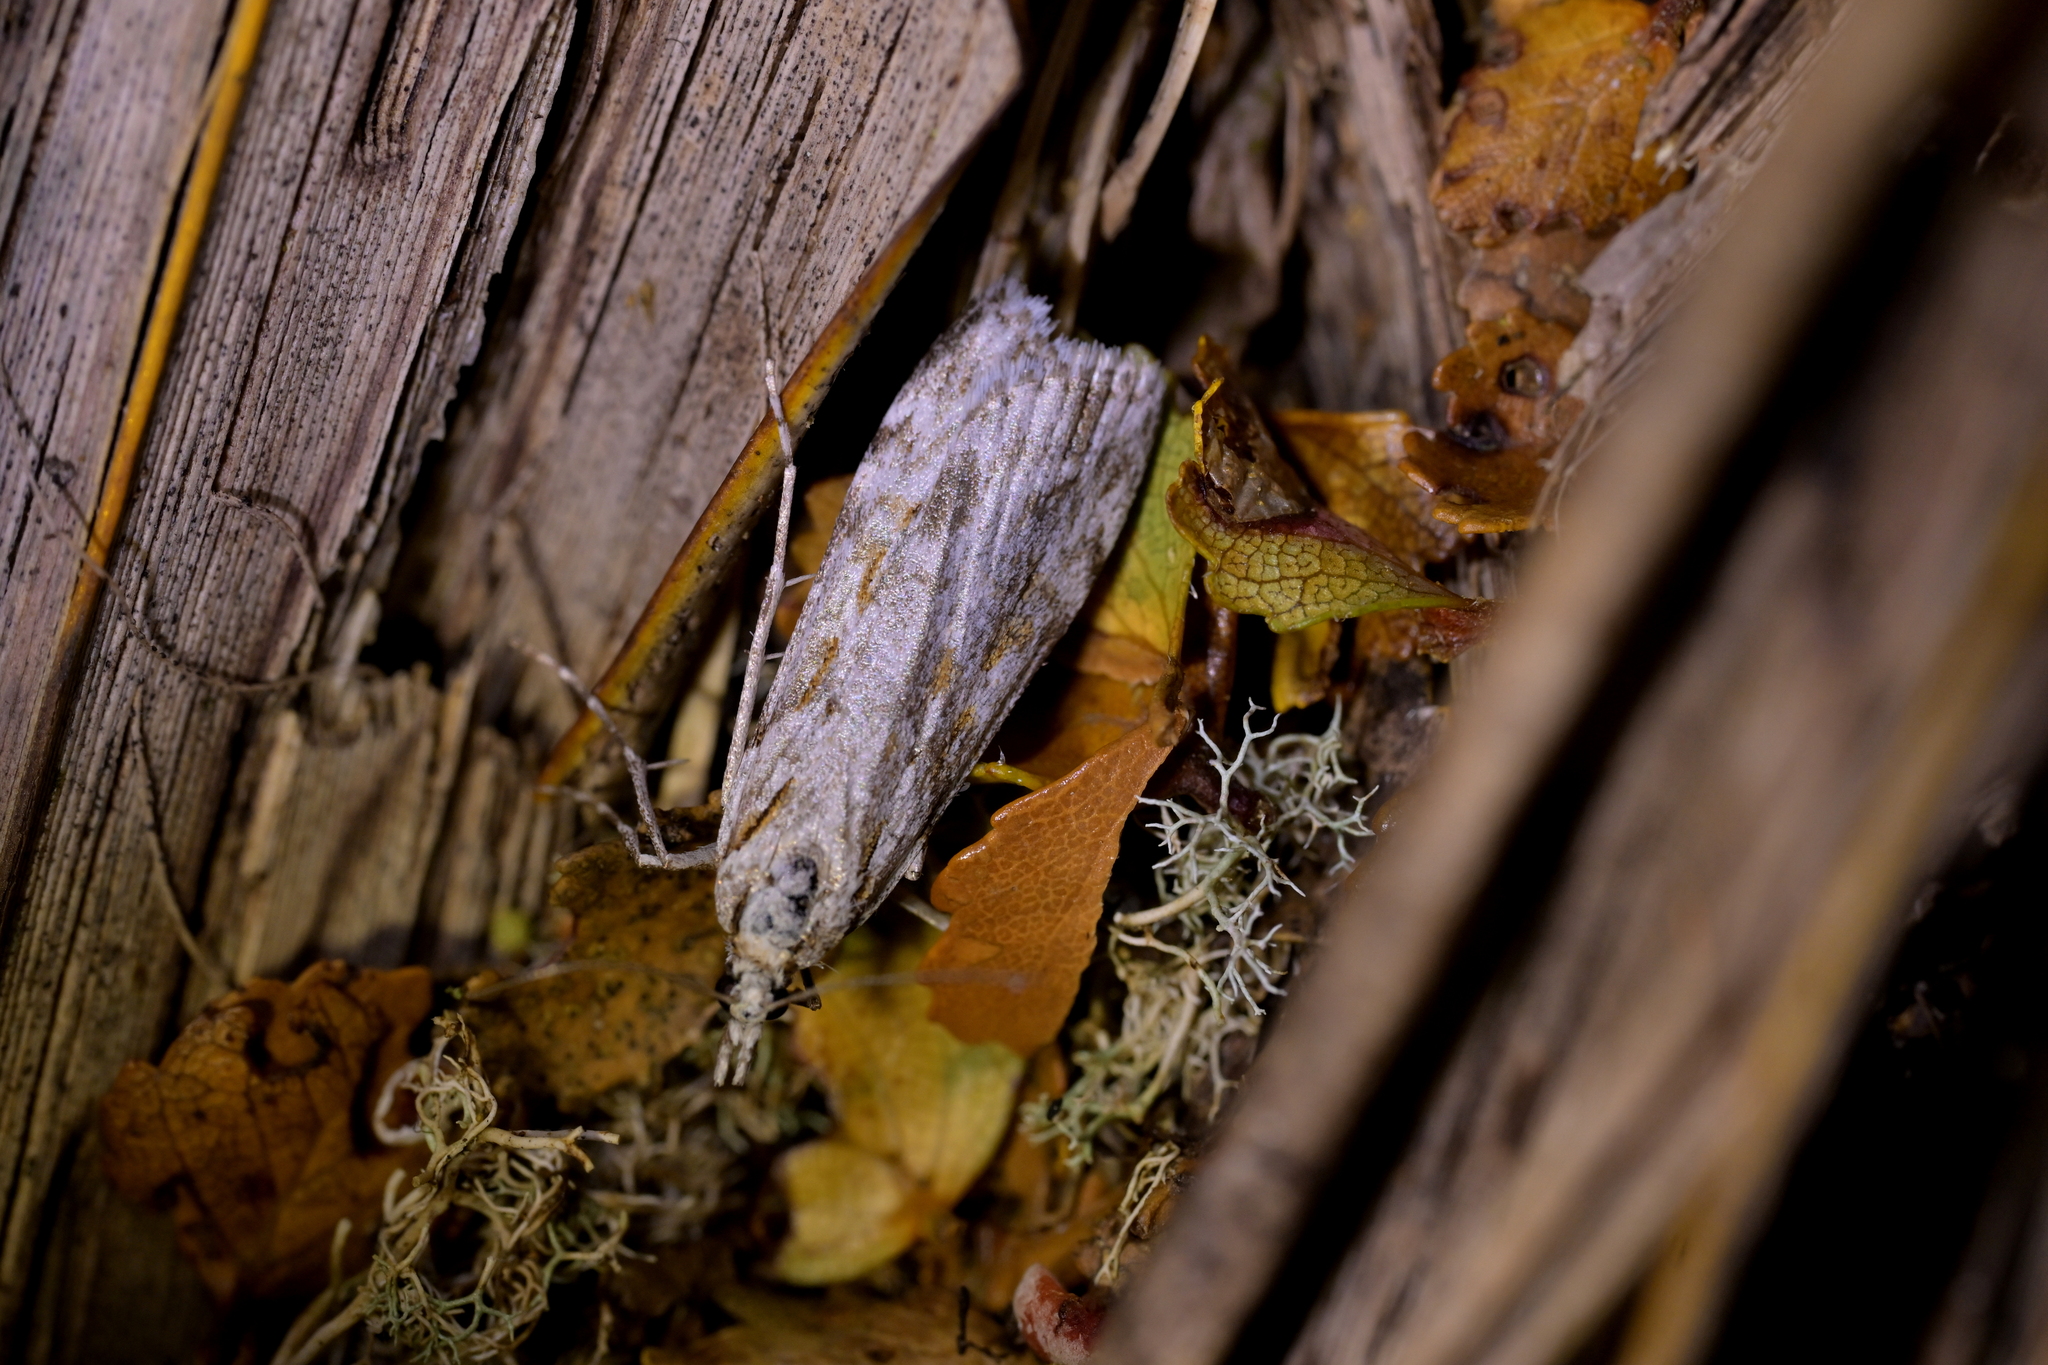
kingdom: Animalia
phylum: Arthropoda
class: Insecta
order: Lepidoptera
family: Crambidae
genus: Scoparia
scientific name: Scoparia petrina
